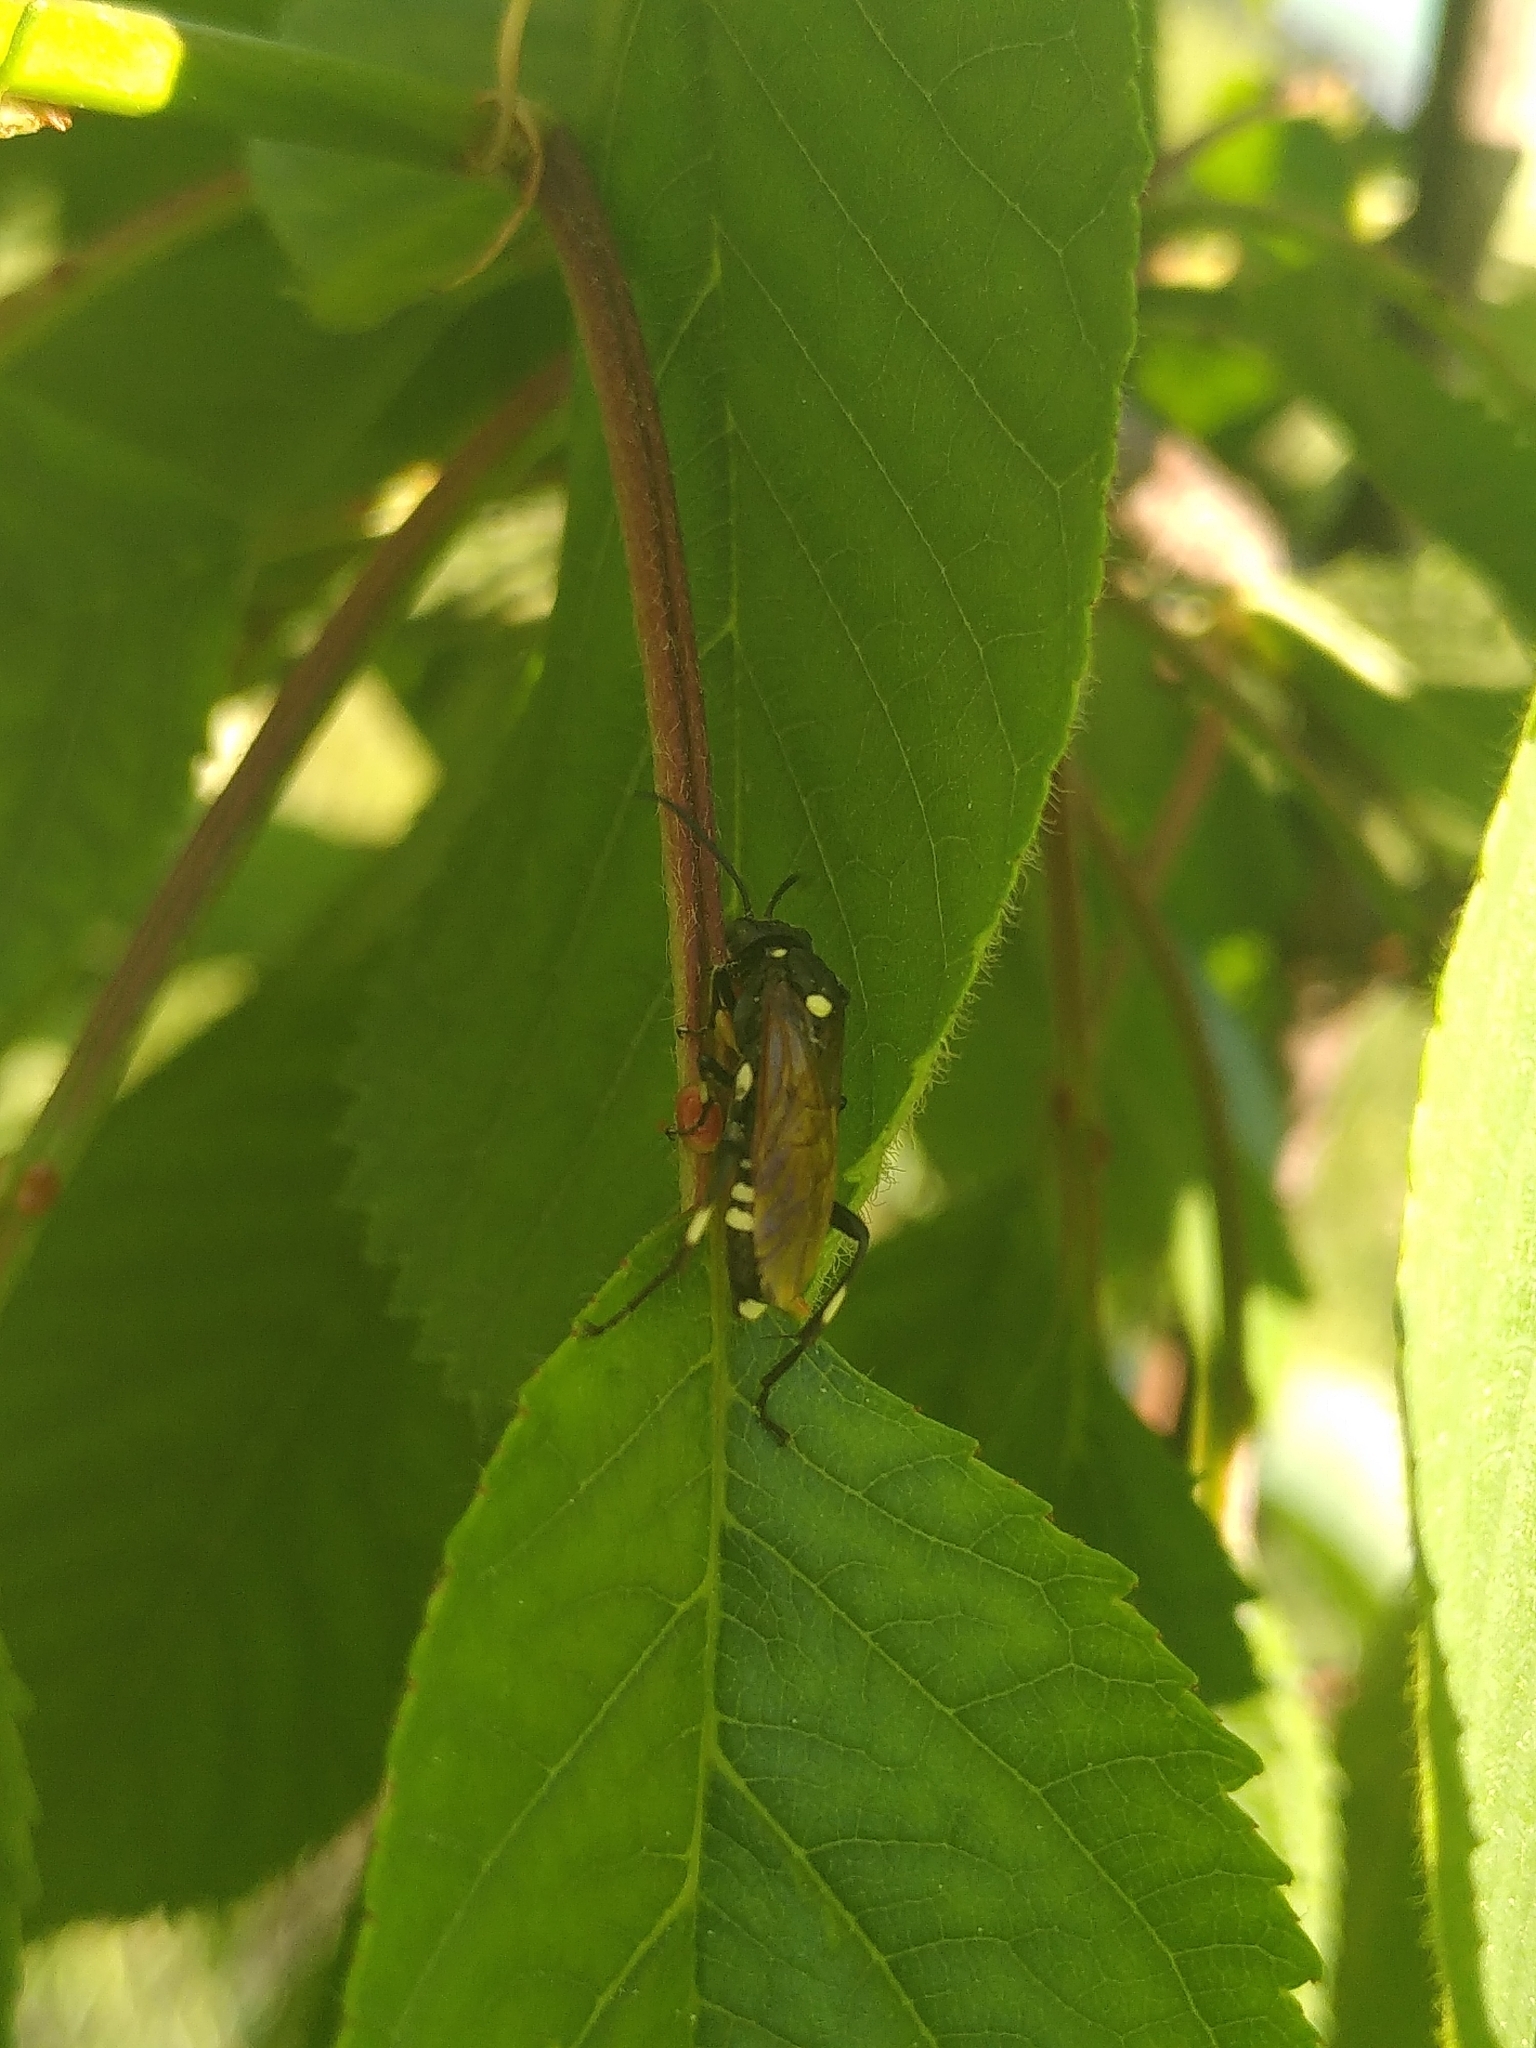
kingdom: Animalia
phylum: Arthropoda
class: Insecta
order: Hymenoptera
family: Tenthredinidae
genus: Macrophya
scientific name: Macrophya duodecimpunctata
